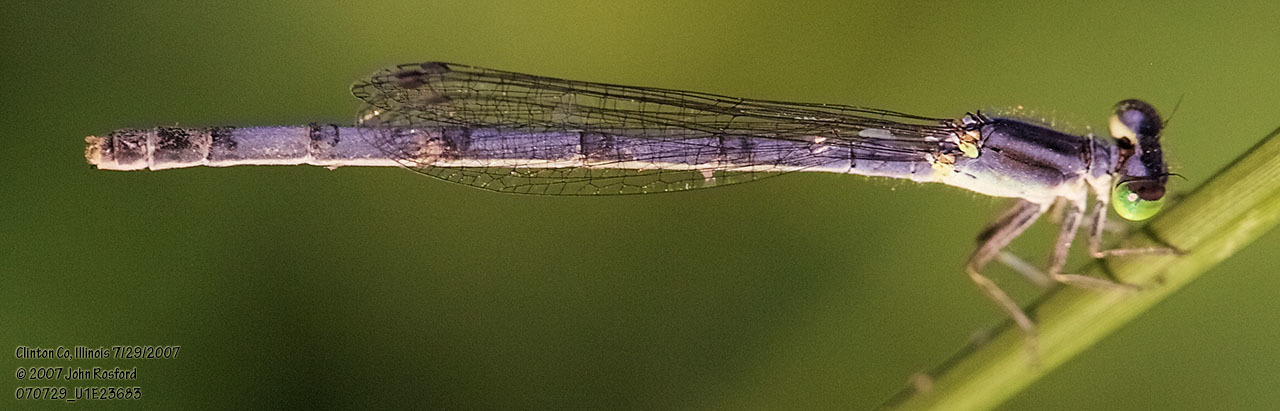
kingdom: Animalia
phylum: Arthropoda
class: Insecta
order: Odonata
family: Coenagrionidae
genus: Ischnura
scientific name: Ischnura verticalis
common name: Eastern forktail
